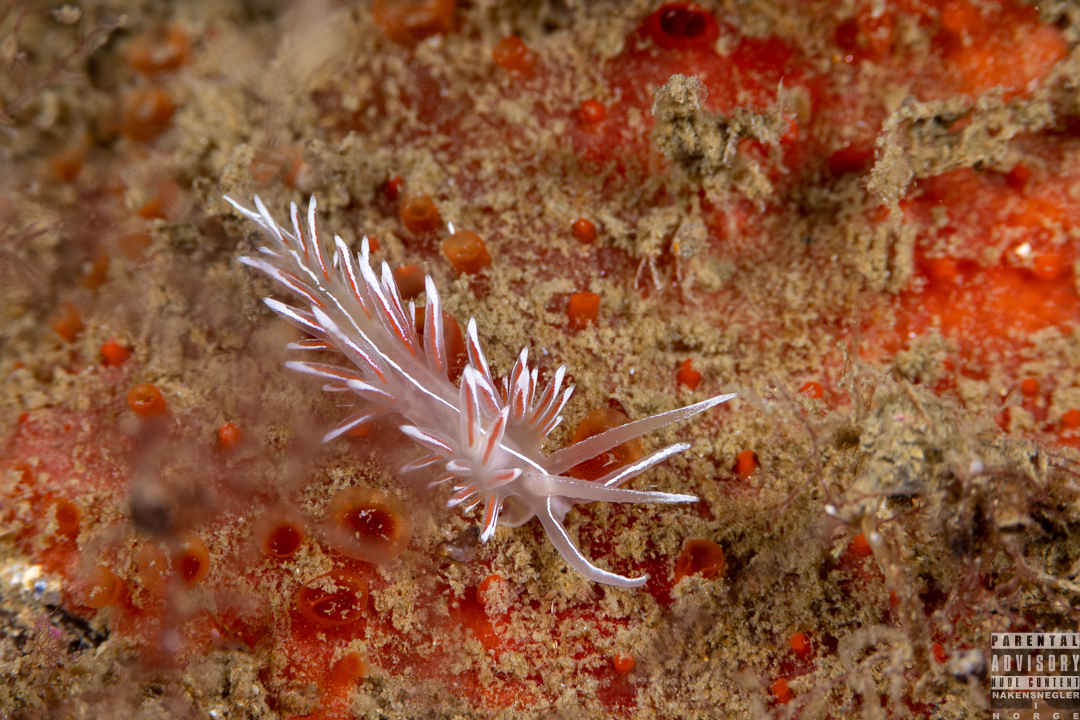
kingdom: Animalia
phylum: Mollusca
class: Gastropoda
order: Nudibranchia
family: Coryphellidae
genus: Coryphella
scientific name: Coryphella lineata
